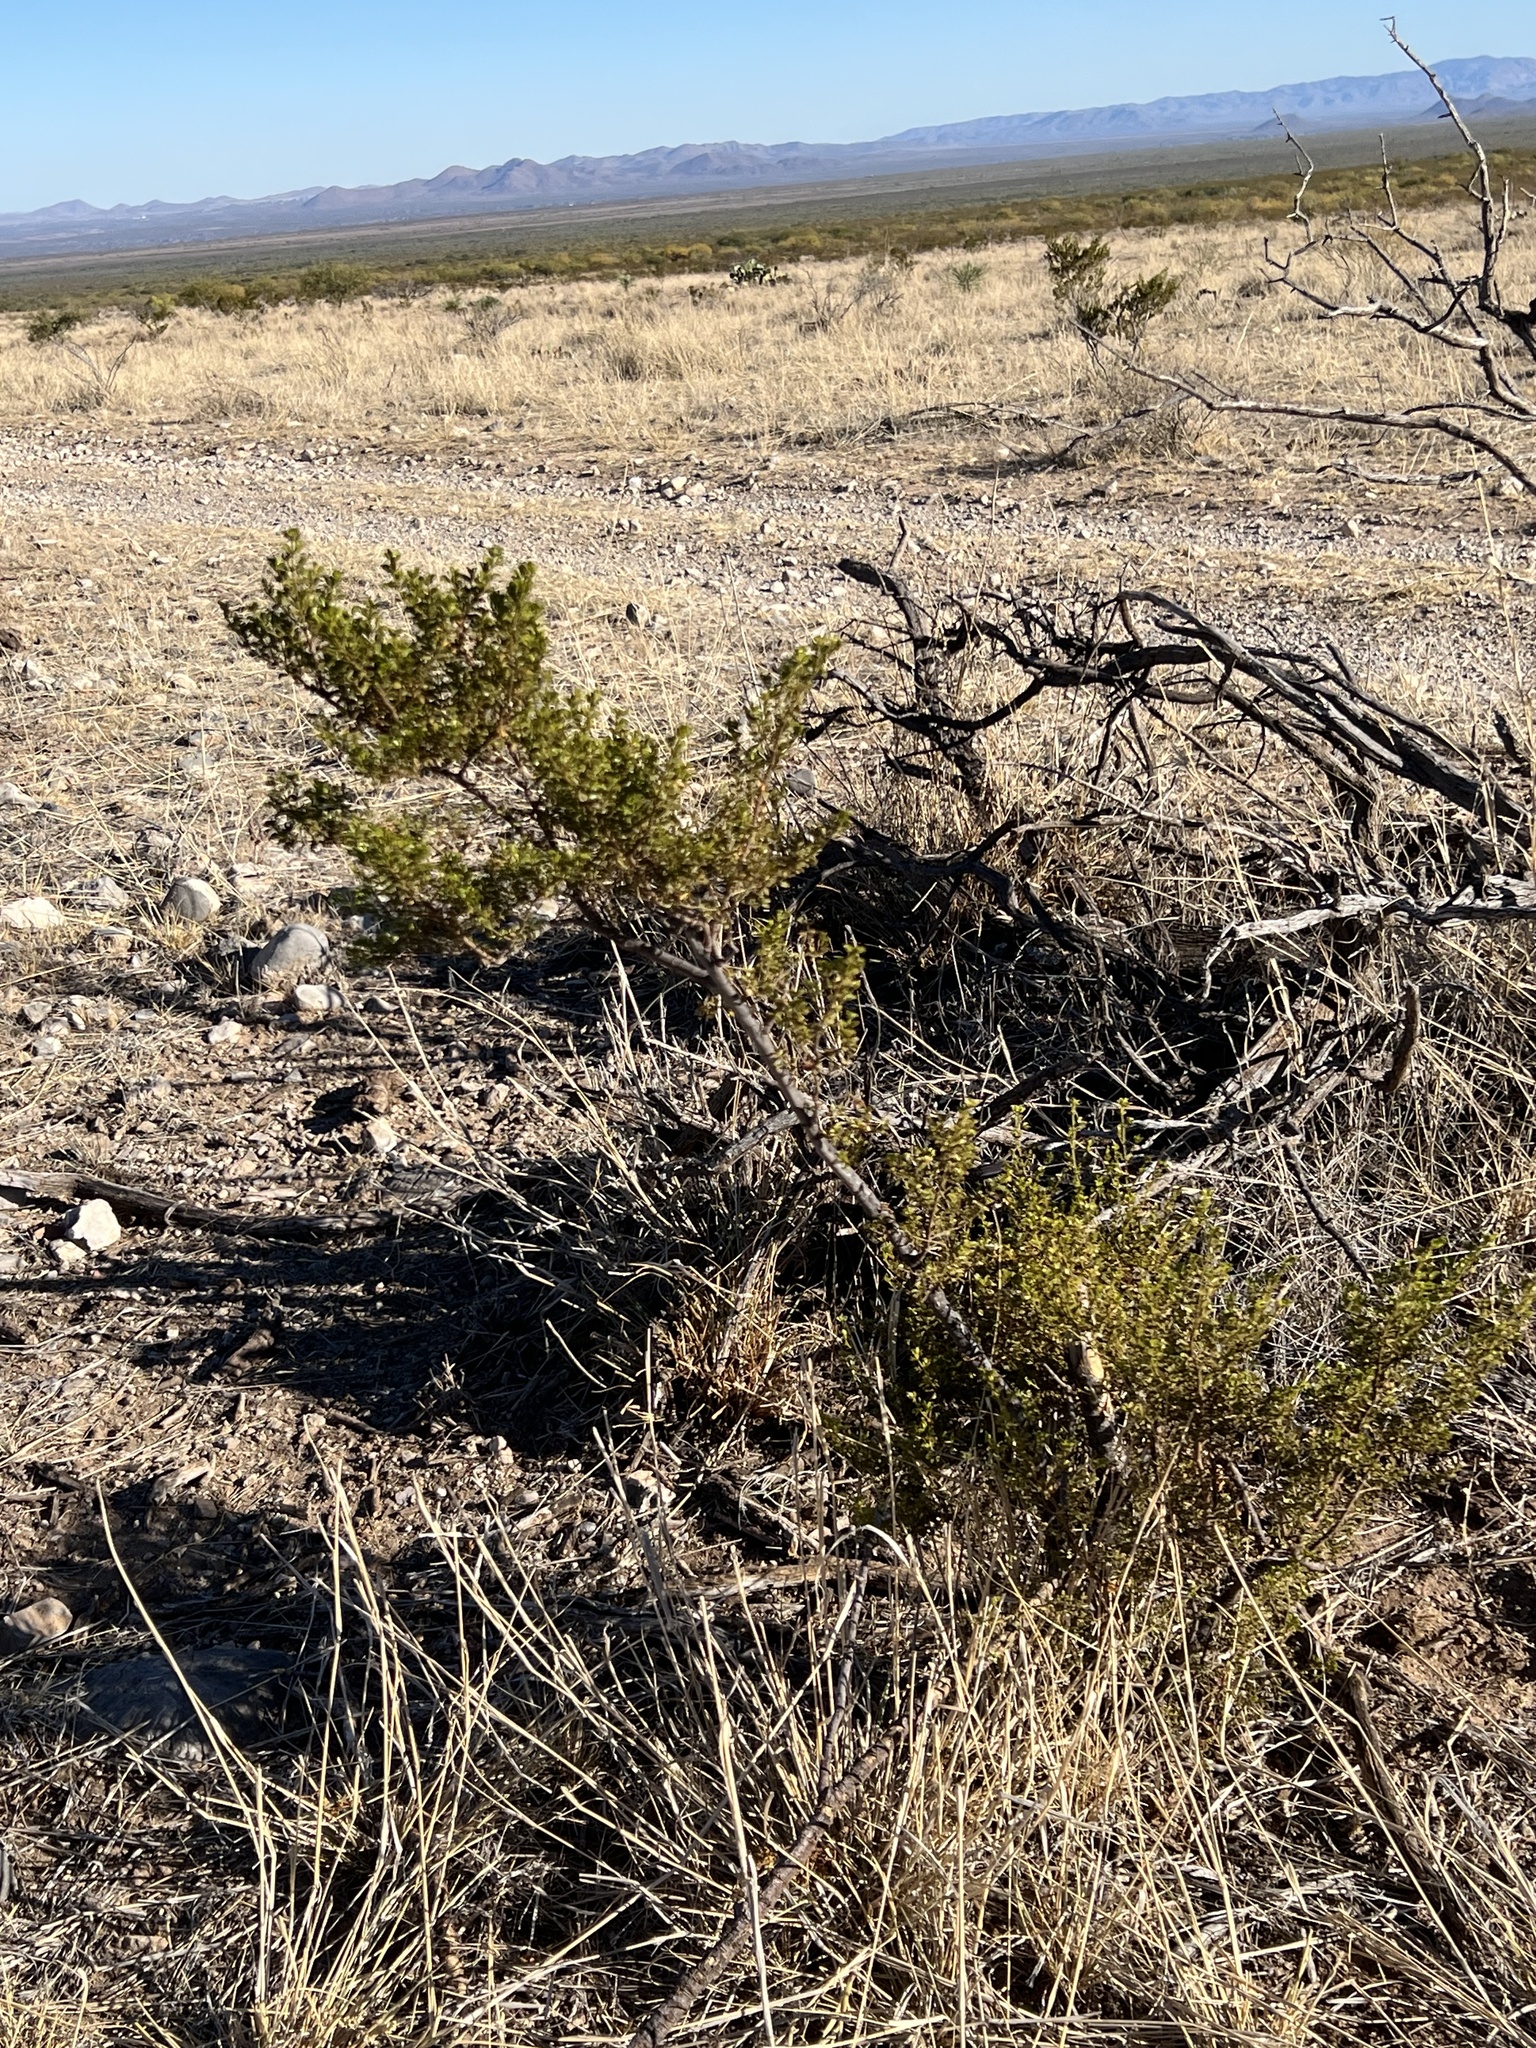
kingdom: Plantae
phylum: Tracheophyta
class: Magnoliopsida
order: Zygophyllales
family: Zygophyllaceae
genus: Larrea
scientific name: Larrea tridentata
